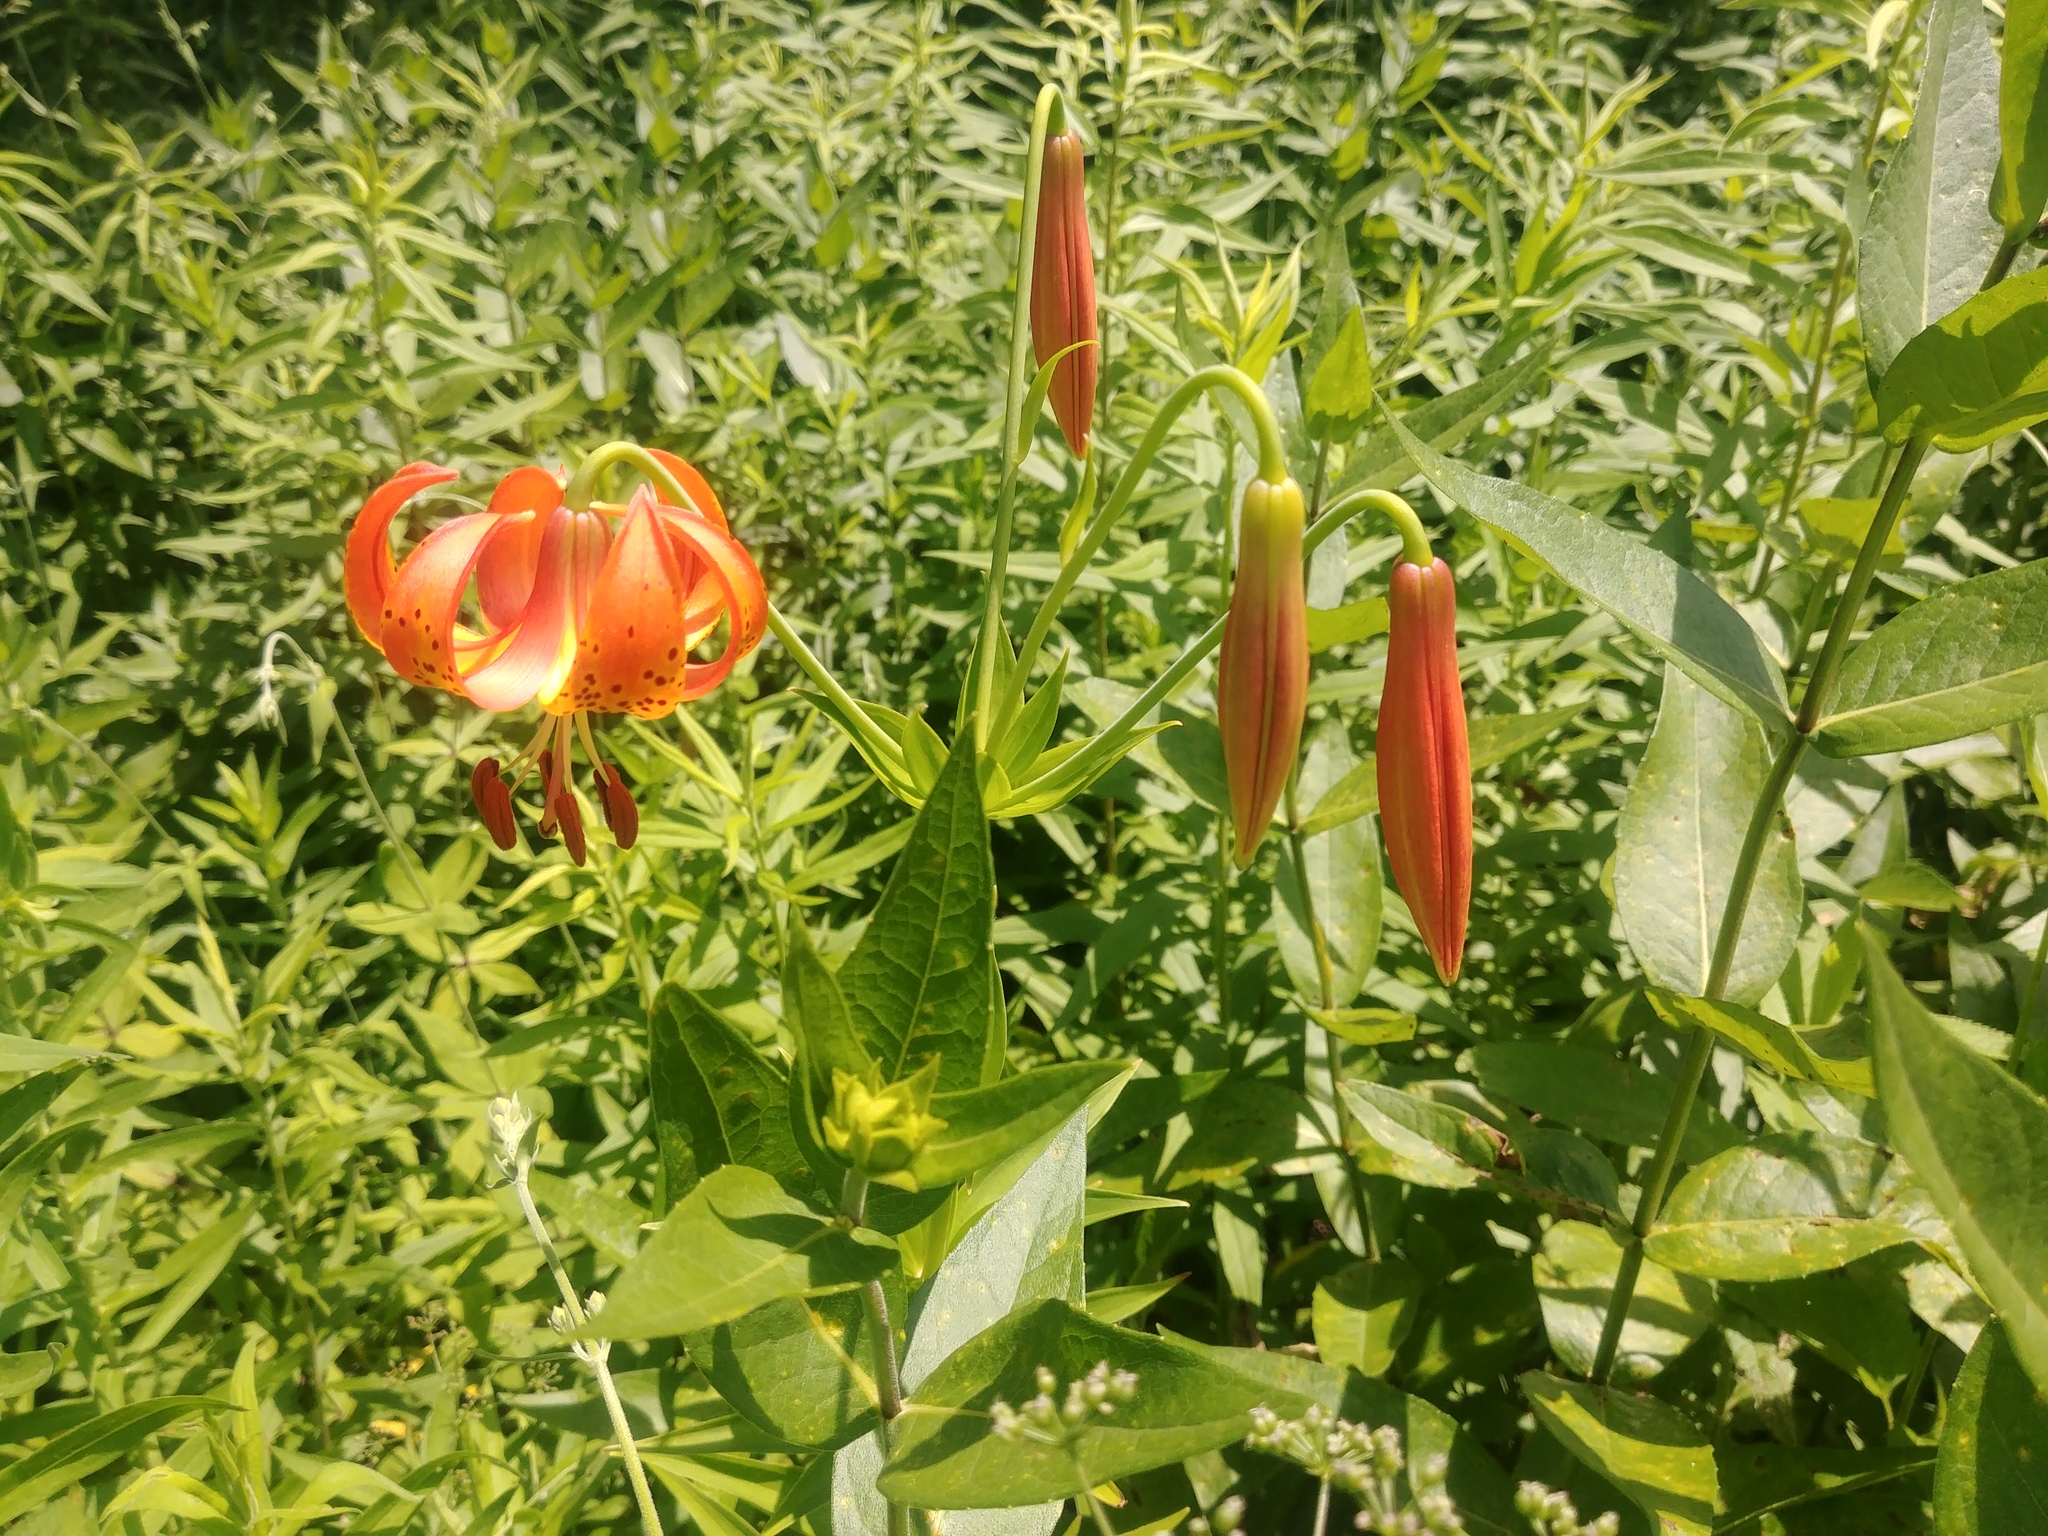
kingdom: Plantae
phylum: Tracheophyta
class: Liliopsida
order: Liliales
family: Liliaceae
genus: Lilium
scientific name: Lilium michiganense
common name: Michigan lily
